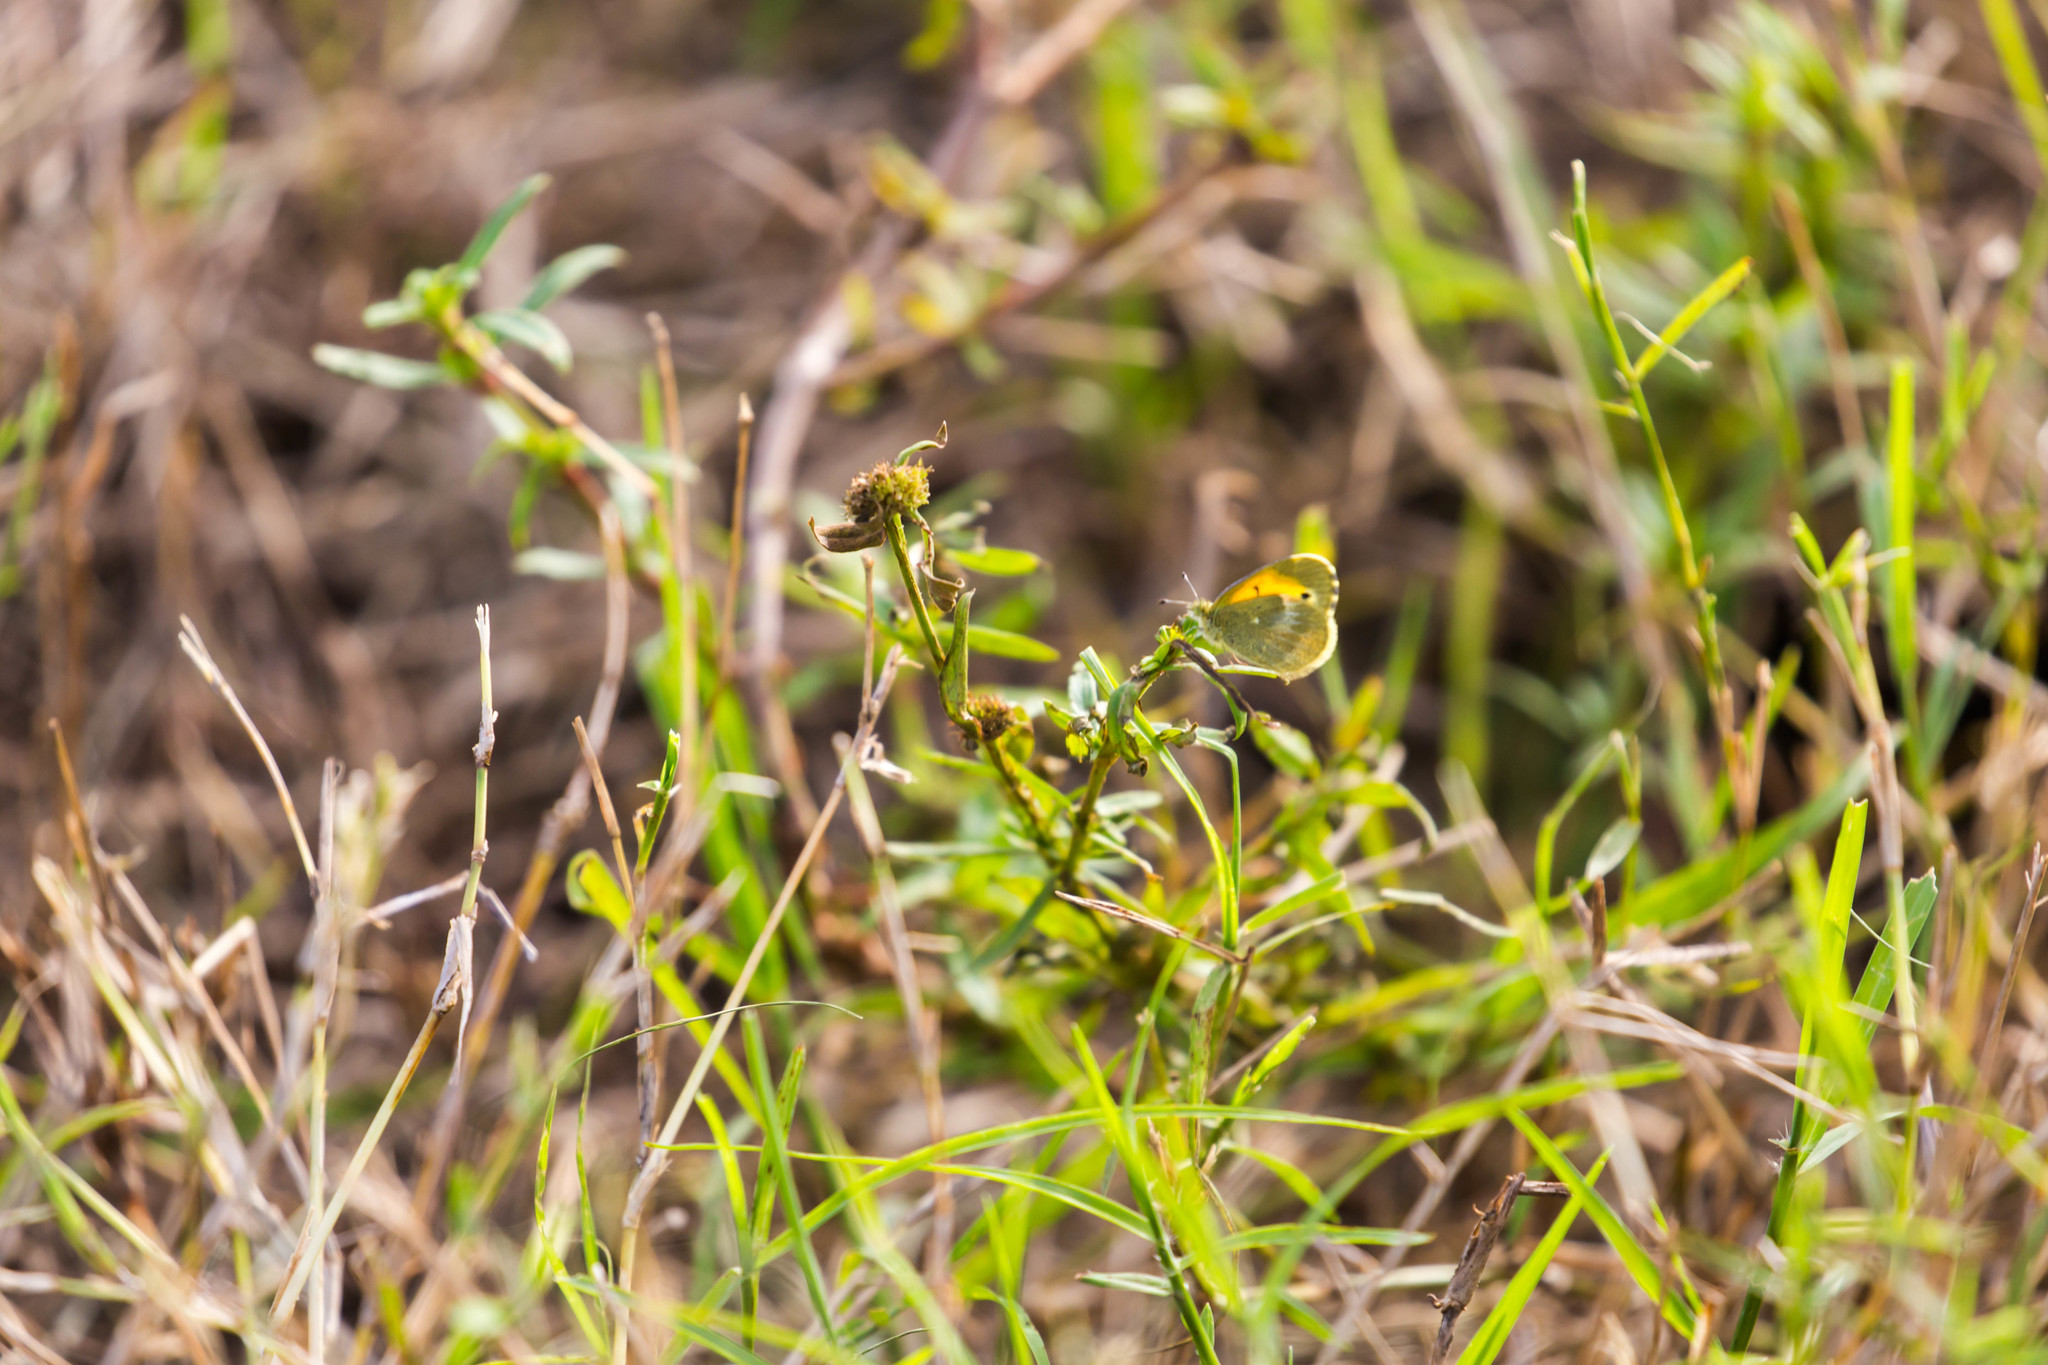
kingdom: Animalia
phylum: Arthropoda
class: Insecta
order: Lepidoptera
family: Pieridae
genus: Nathalis
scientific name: Nathalis iole
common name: Dainty sulphur
